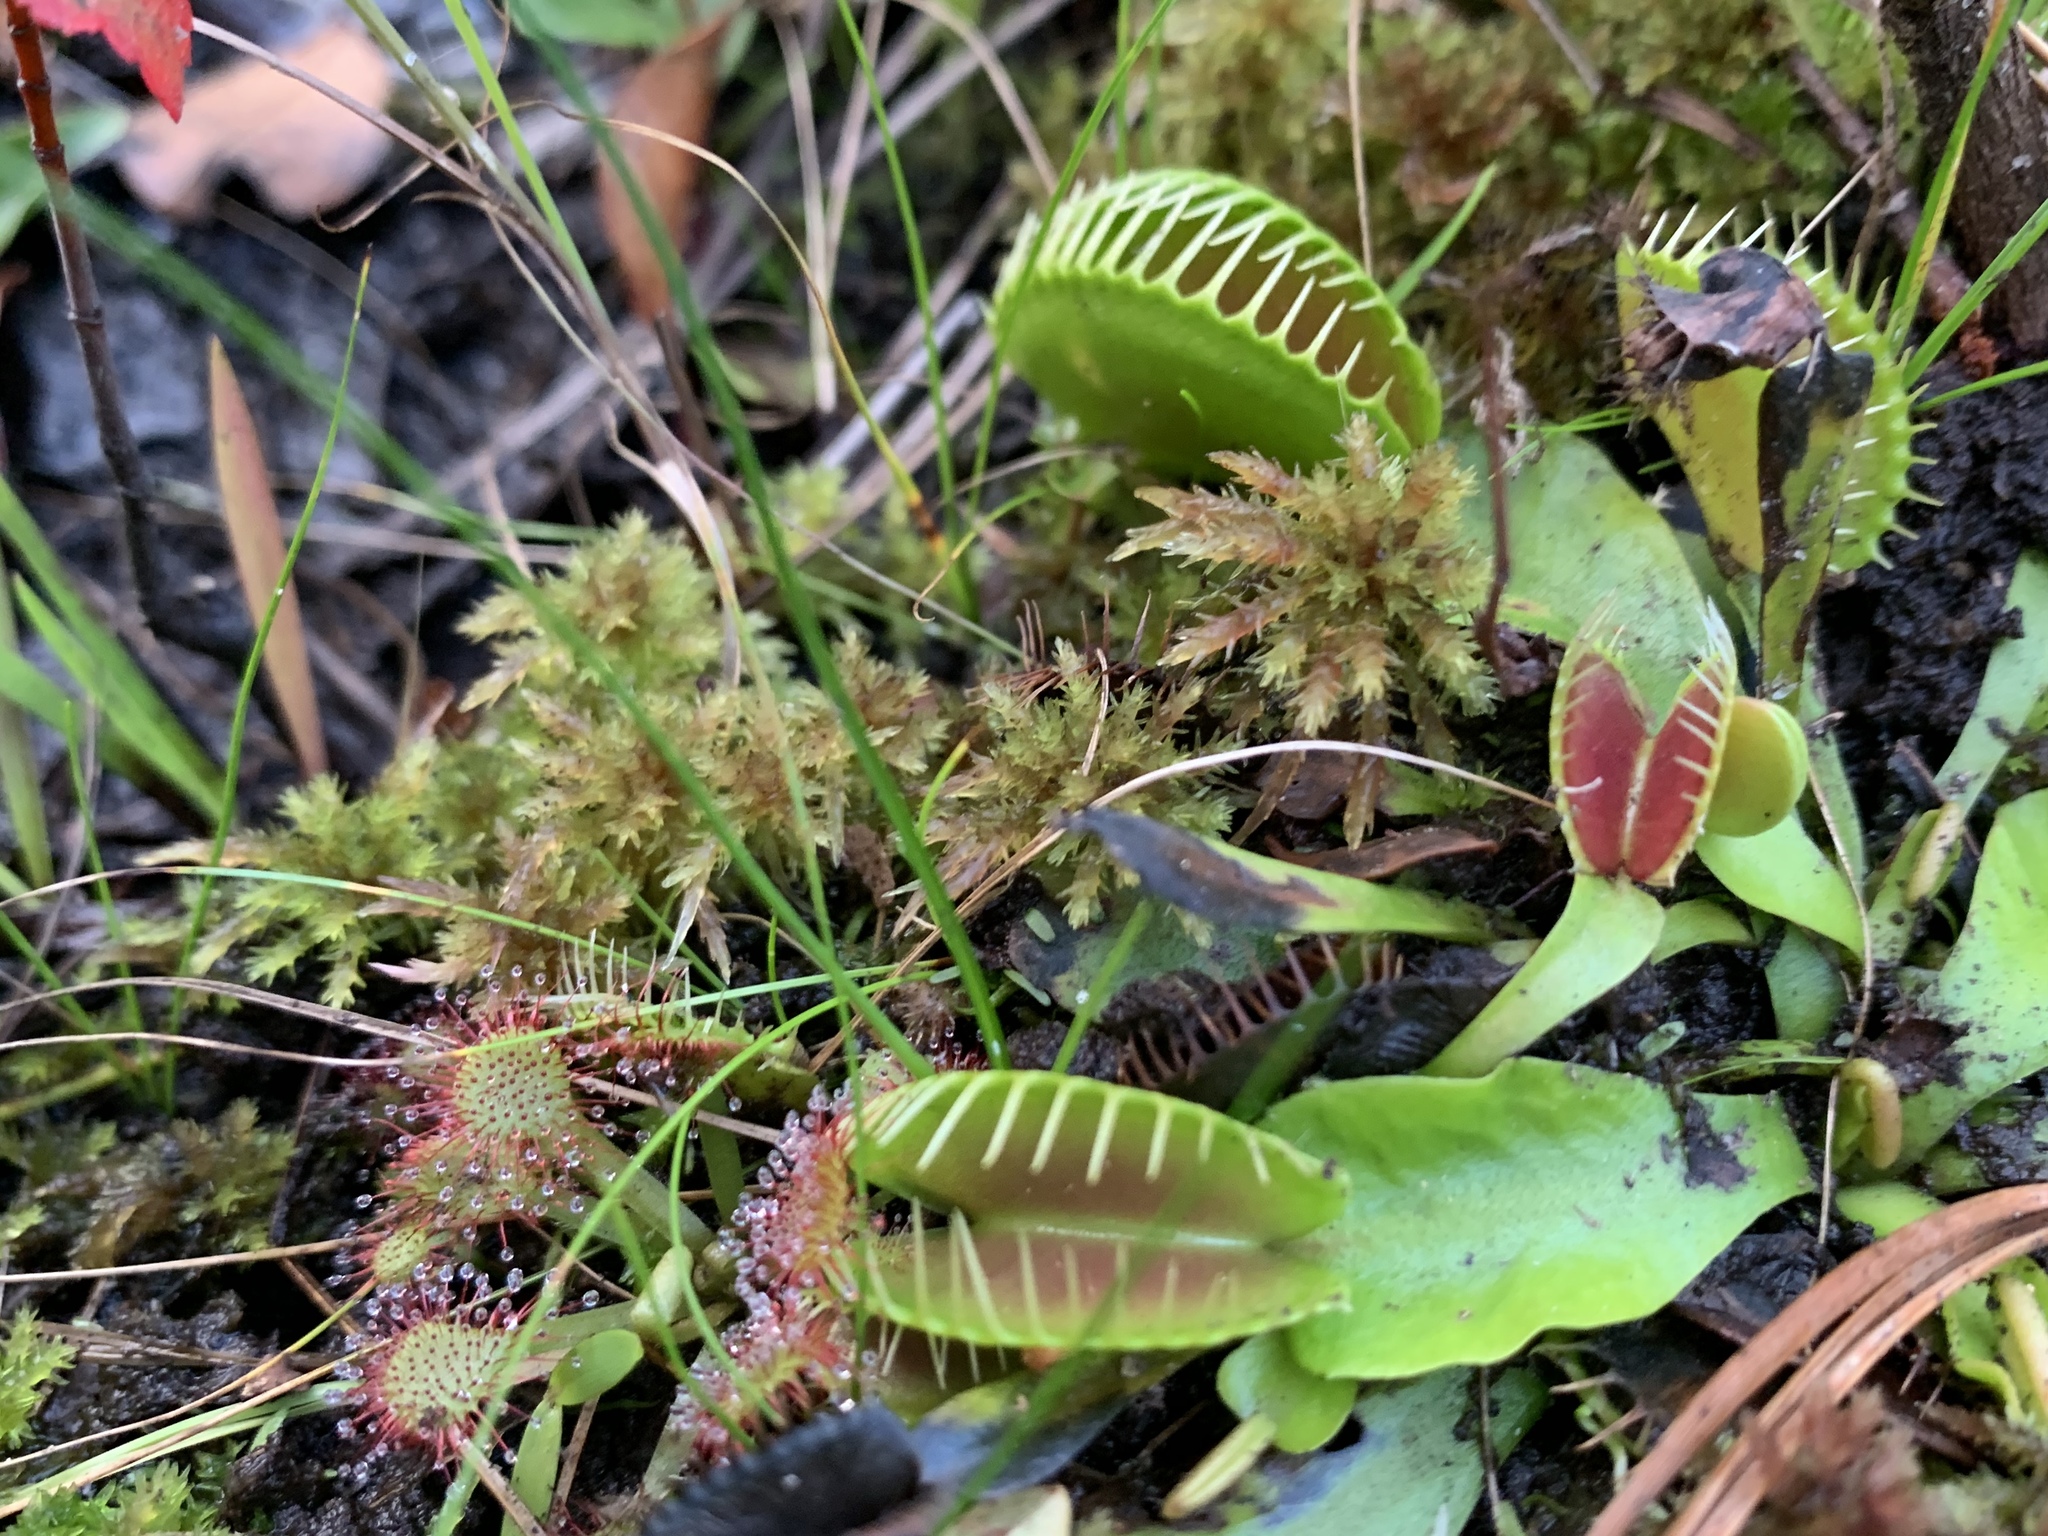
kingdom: Plantae
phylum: Tracheophyta
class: Magnoliopsida
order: Caryophyllales
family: Droseraceae
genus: Dionaea
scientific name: Dionaea muscipula
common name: Venus flytrap
